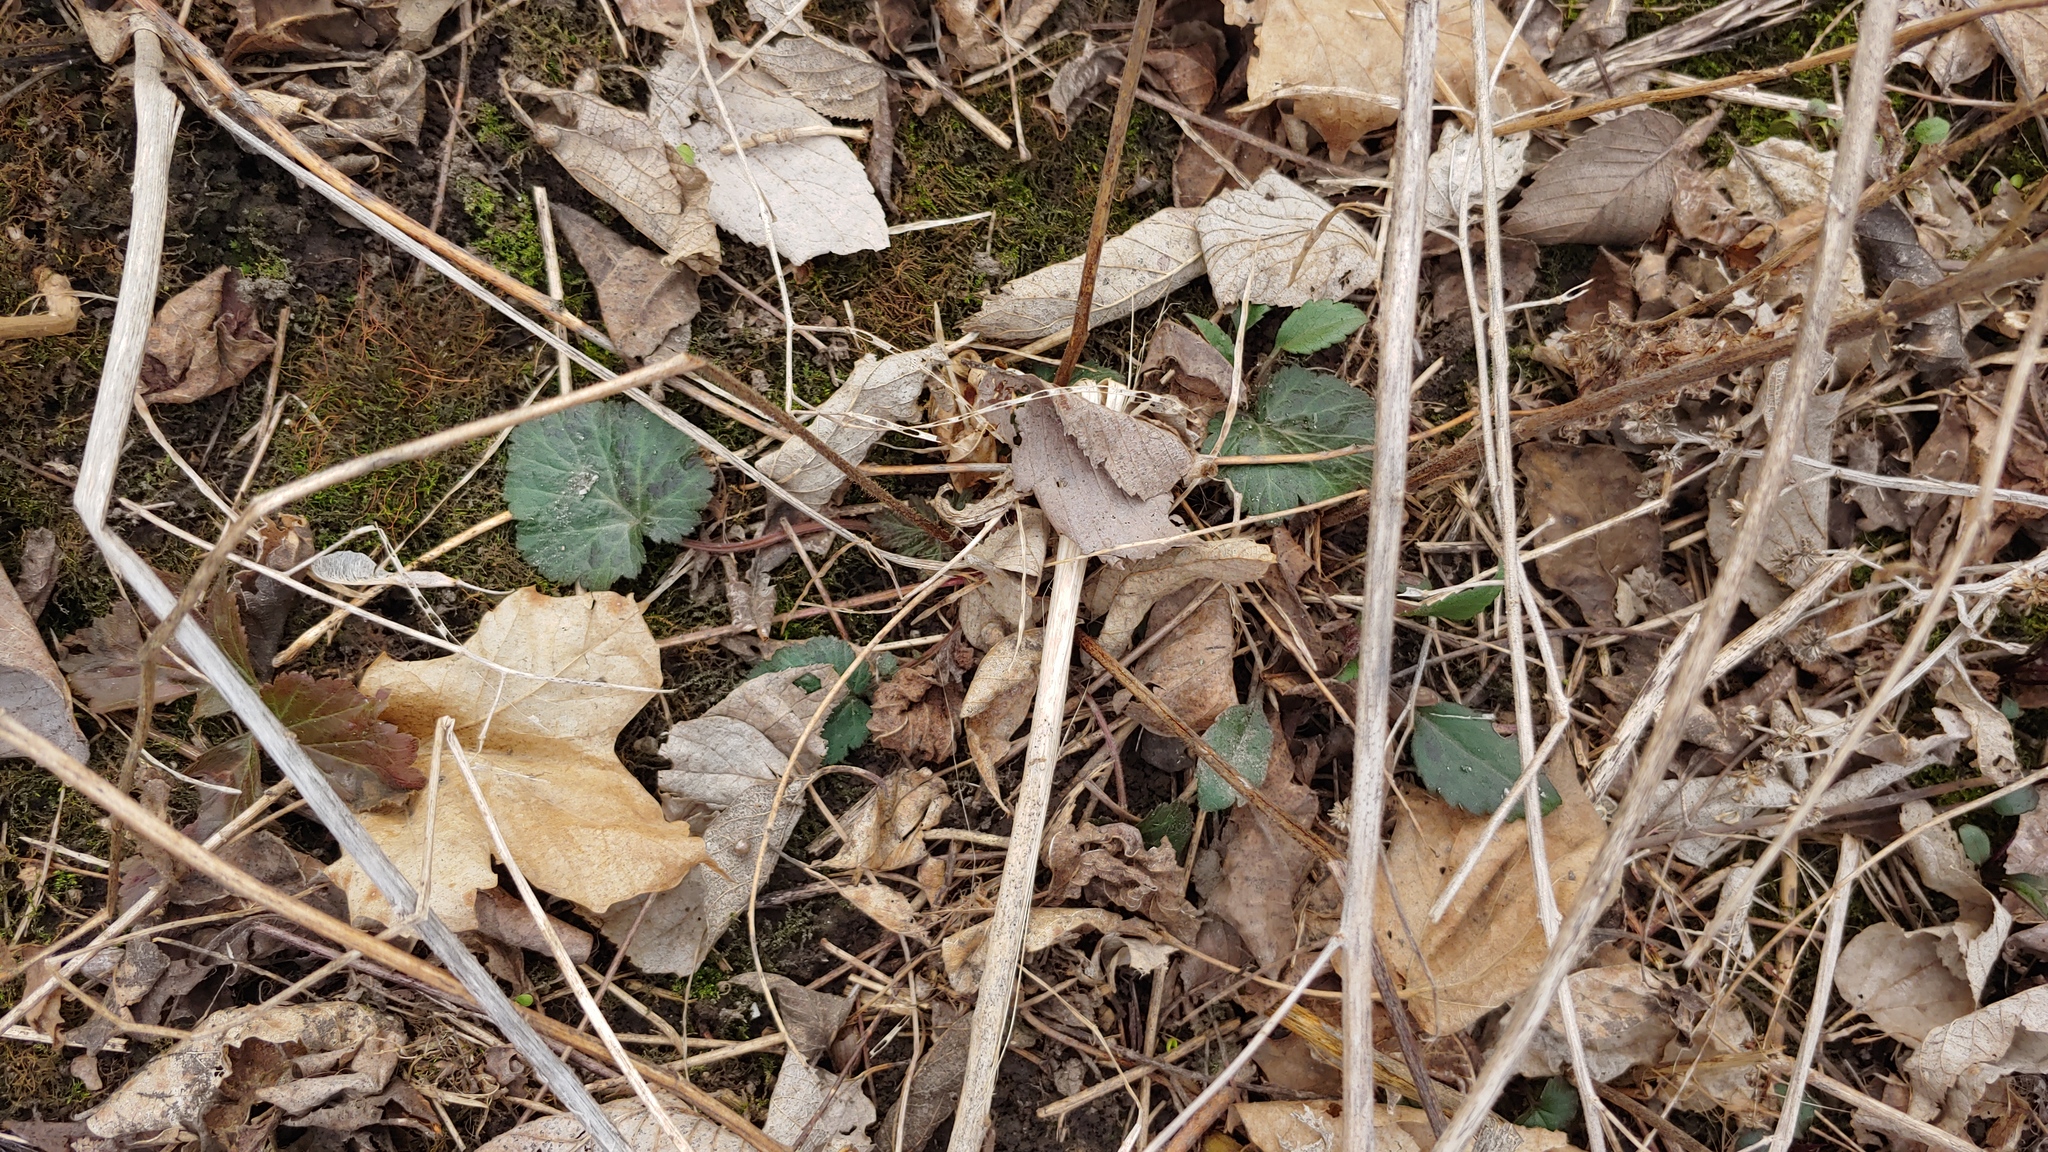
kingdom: Plantae
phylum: Tracheophyta
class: Magnoliopsida
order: Rosales
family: Rosaceae
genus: Geum
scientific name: Geum canadense
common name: White avens
